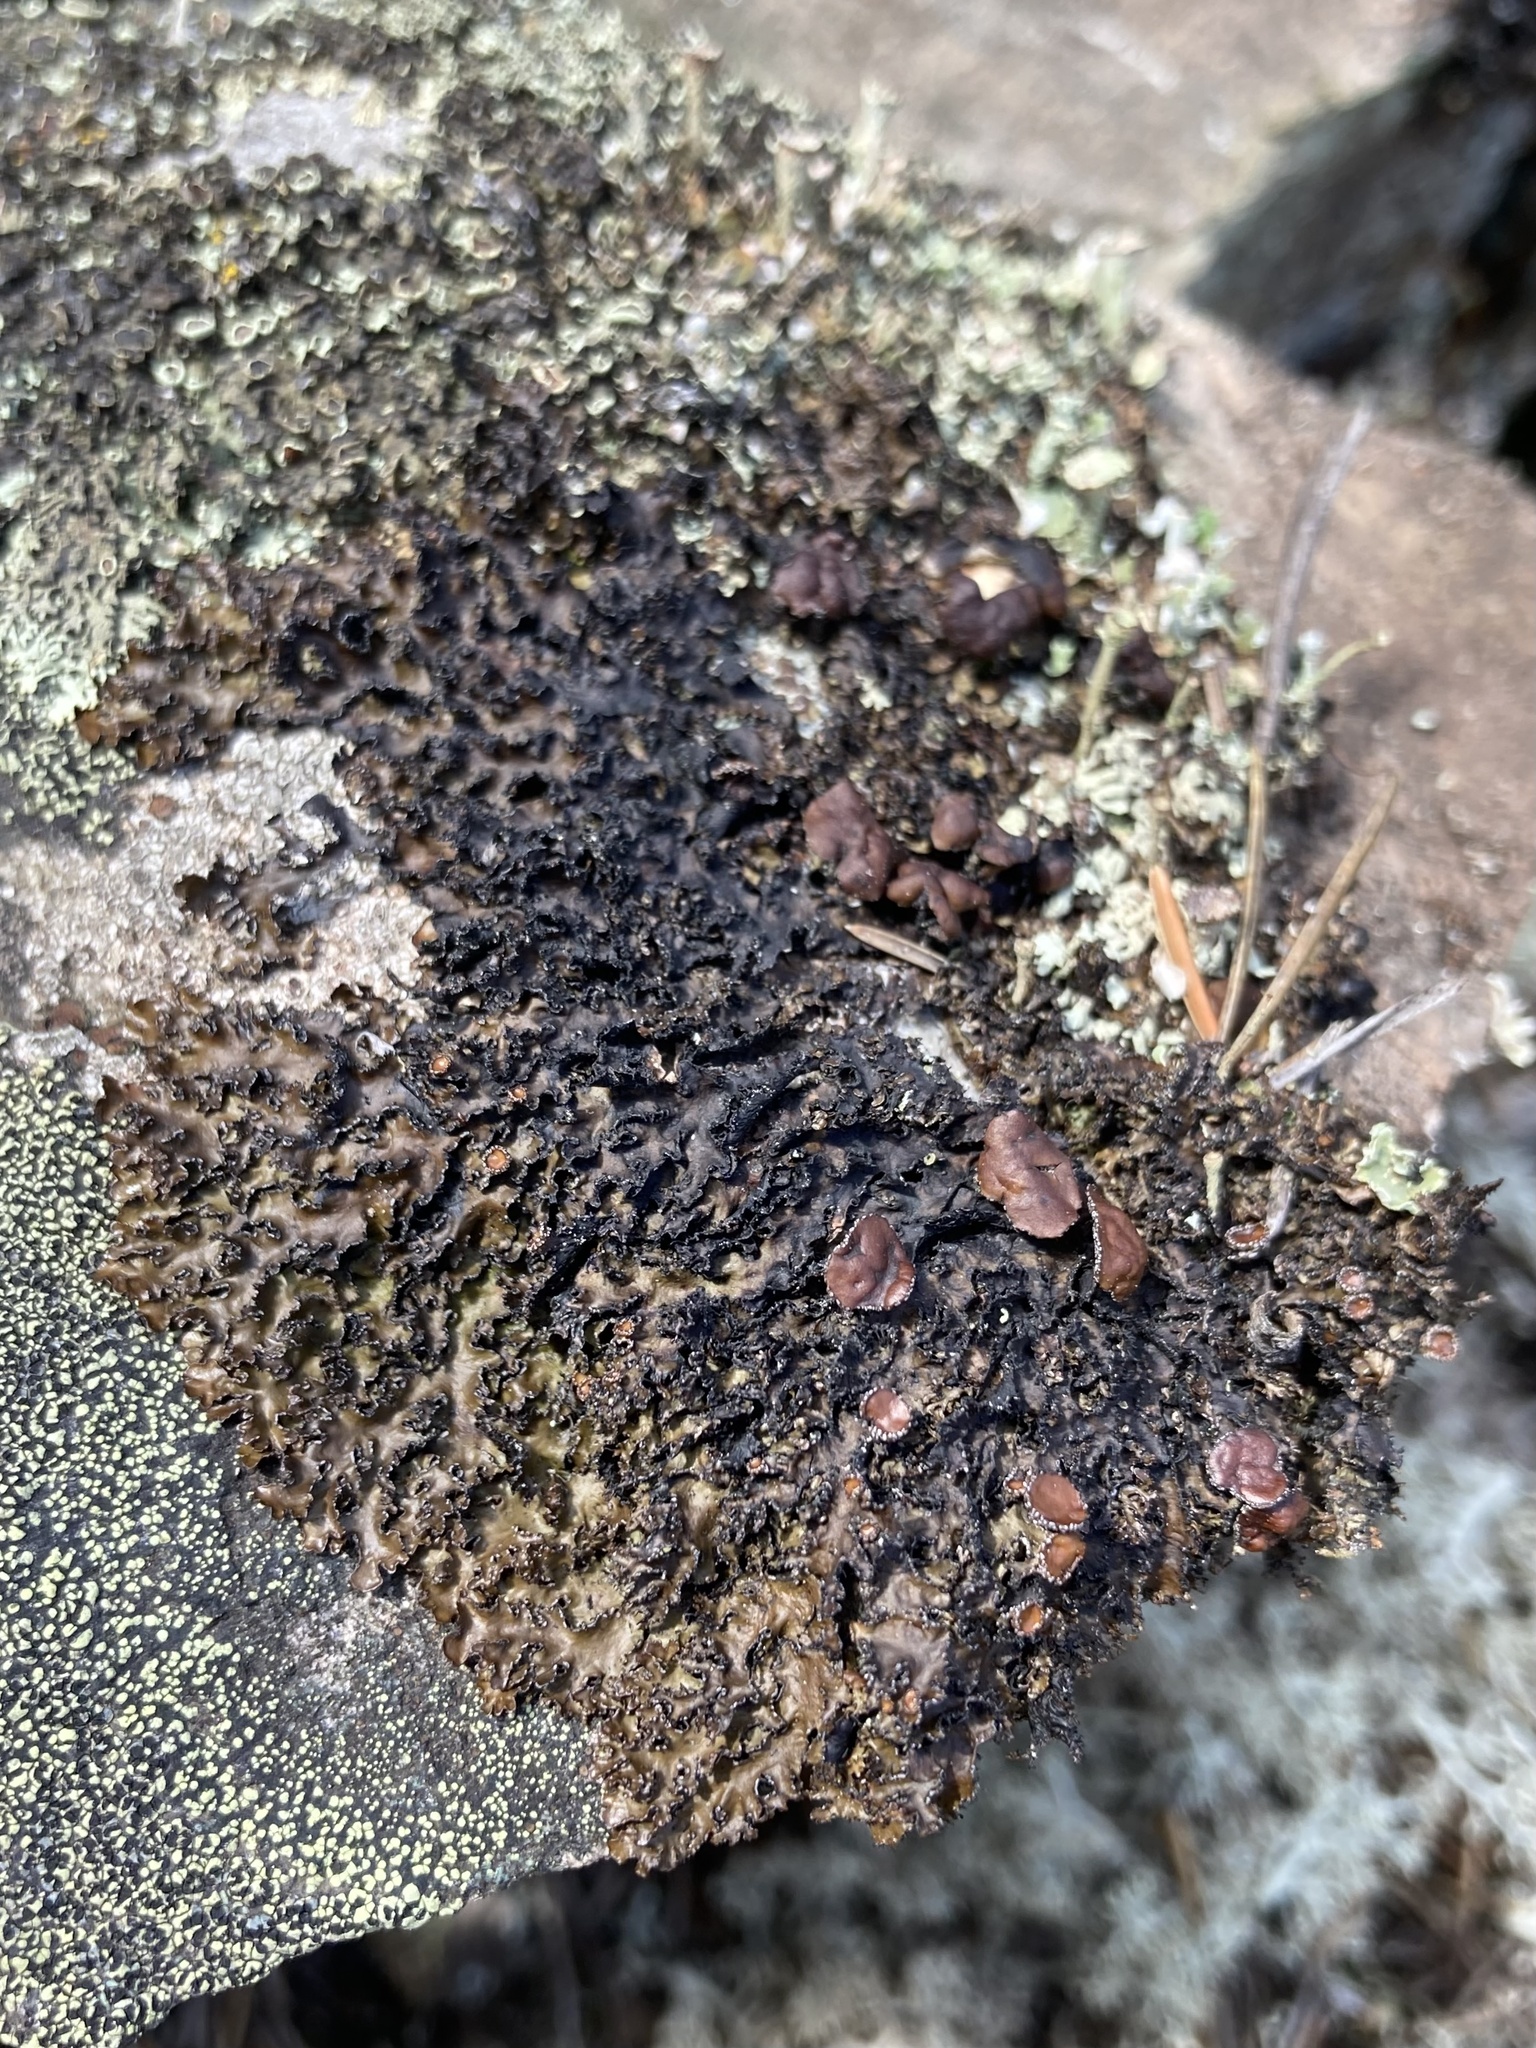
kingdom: Fungi
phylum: Ascomycota
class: Lecanoromycetes
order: Lecanorales
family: Parmeliaceae
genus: Melanelia
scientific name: Melanelia hepatizon
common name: Rimmed camouflage lichen
